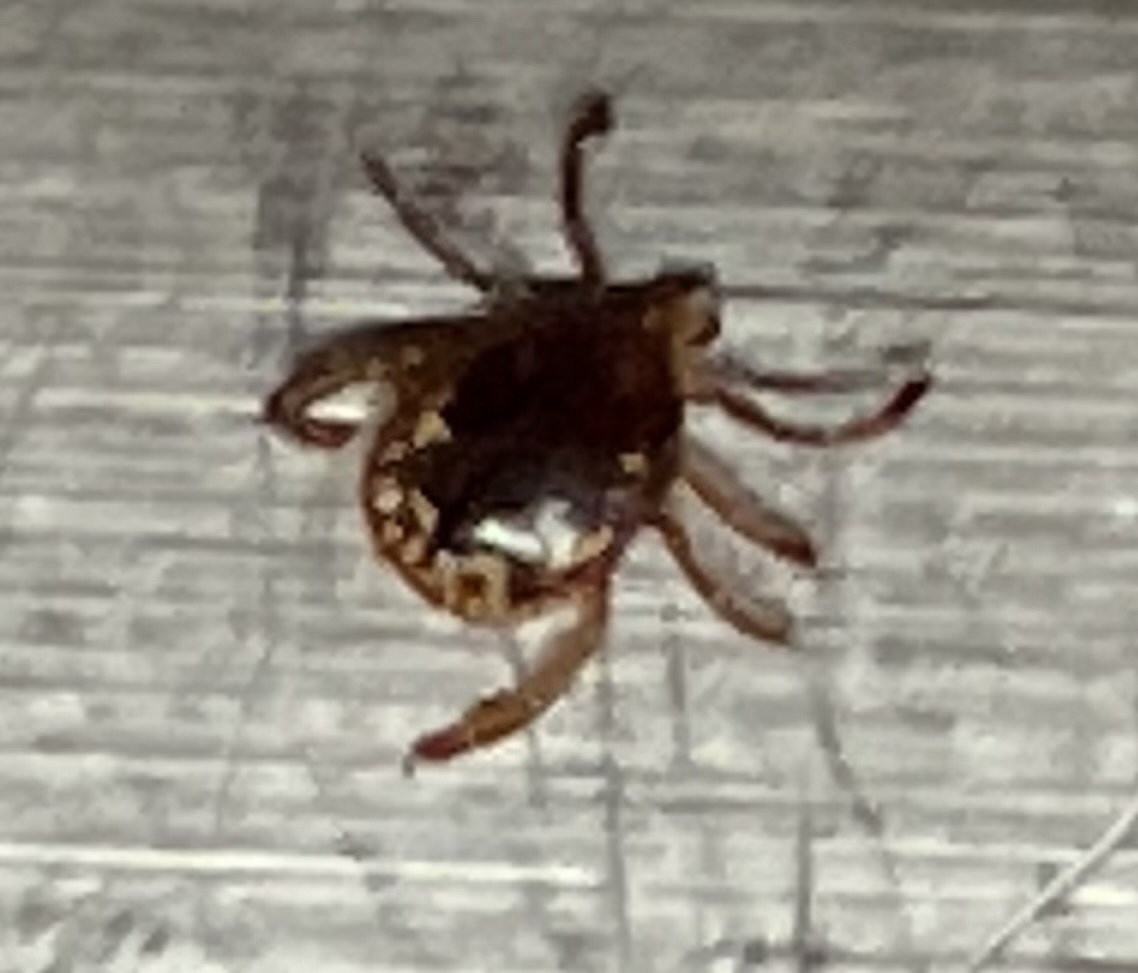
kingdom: Animalia
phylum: Arthropoda
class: Arachnida
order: Ixodida
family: Ixodidae
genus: Amblyomma
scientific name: Amblyomma americanum
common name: Lone star tick
